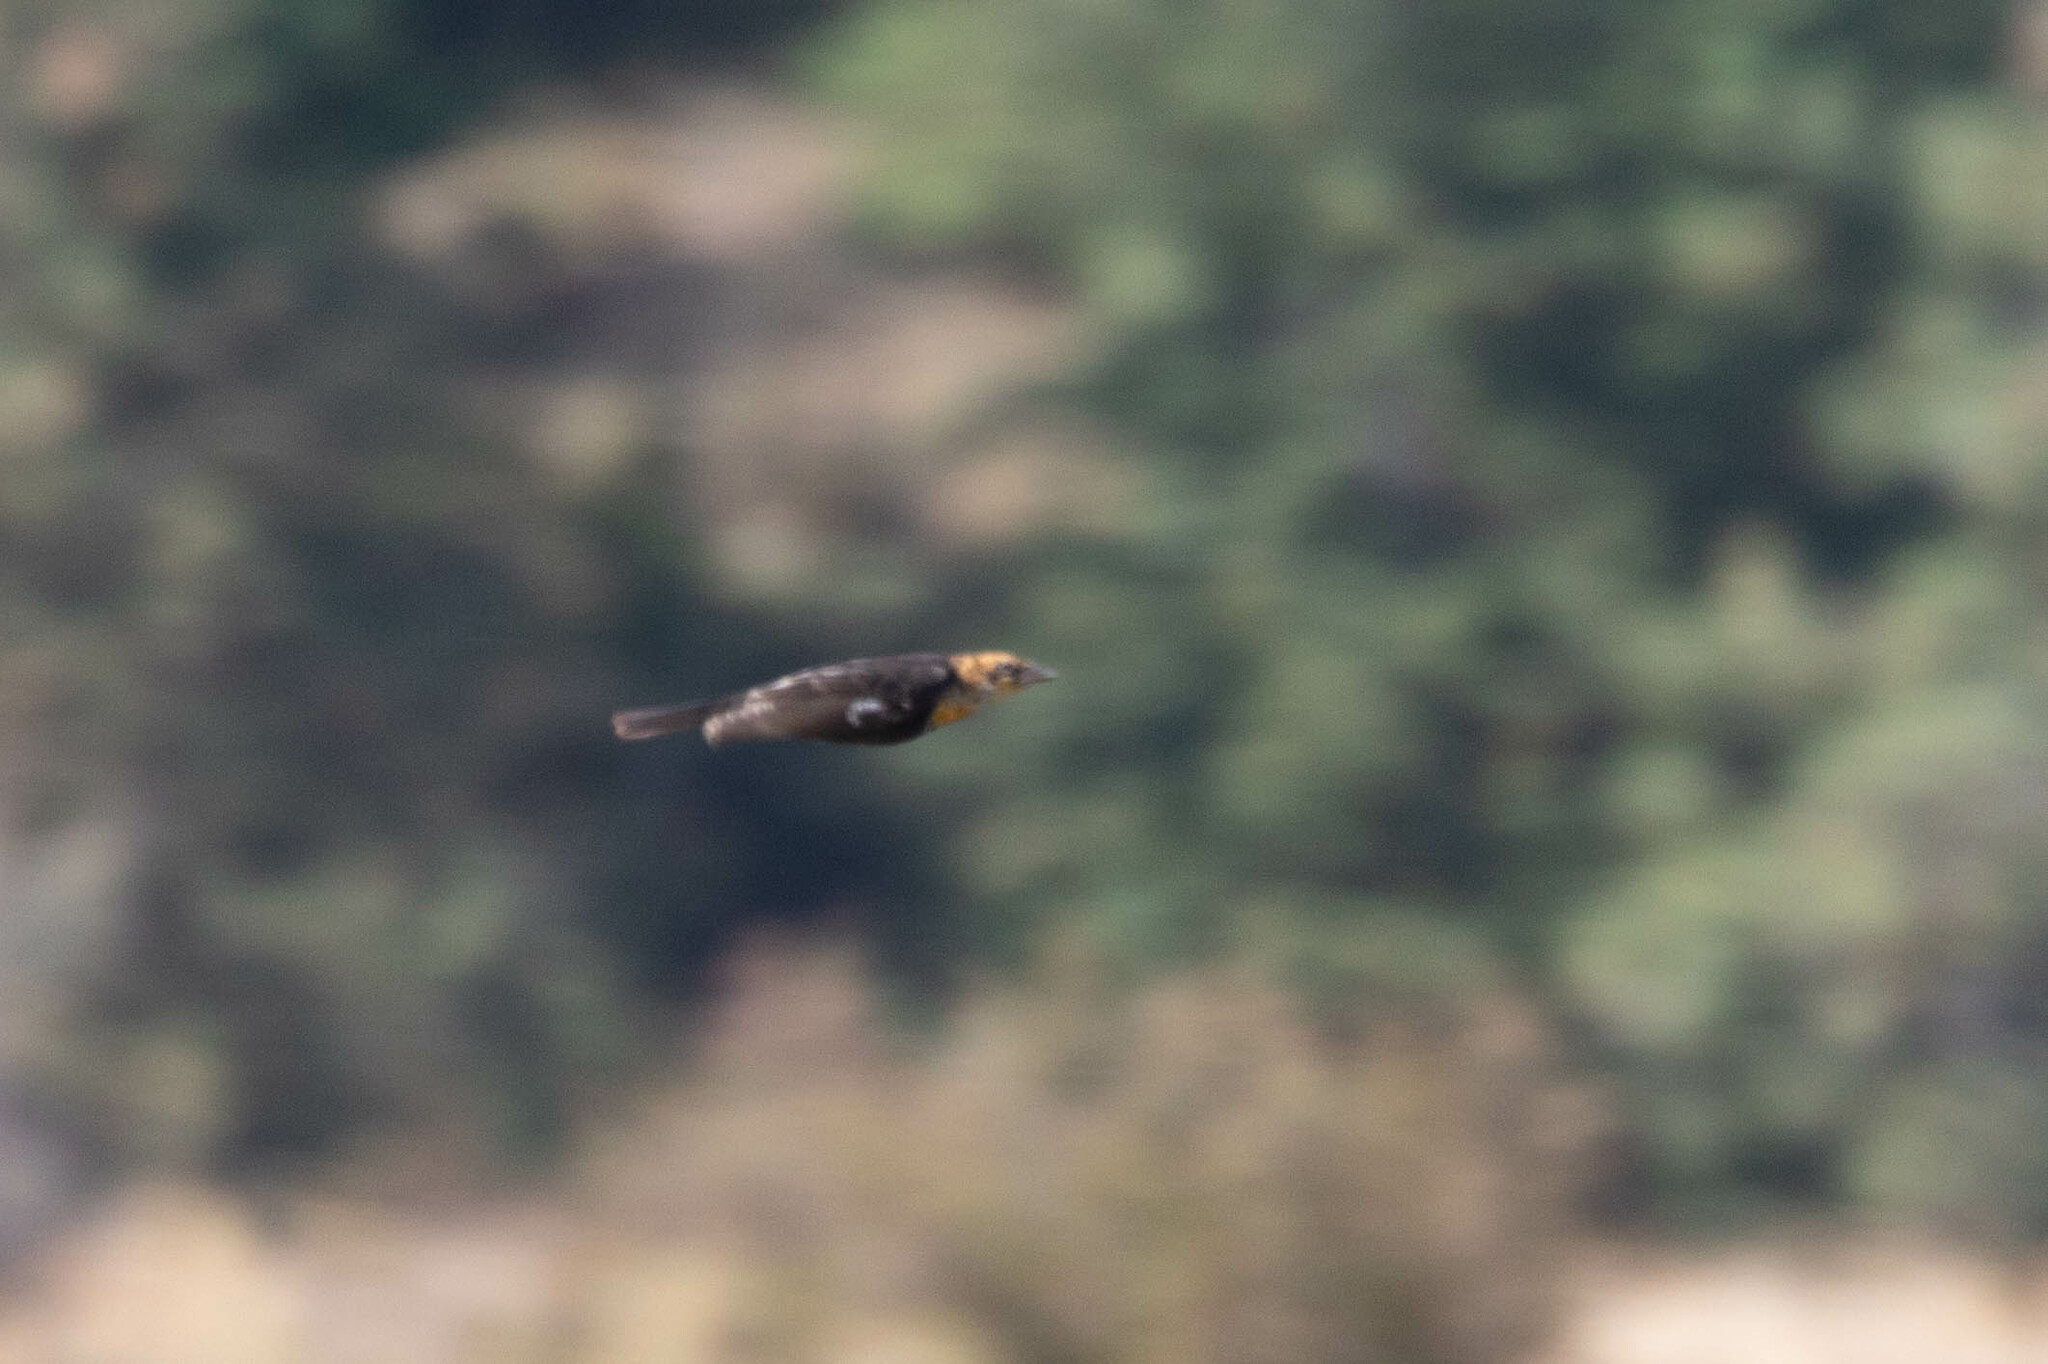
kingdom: Animalia
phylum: Chordata
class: Aves
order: Passeriformes
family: Icteridae
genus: Xanthocephalus
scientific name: Xanthocephalus xanthocephalus
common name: Yellow-headed blackbird
